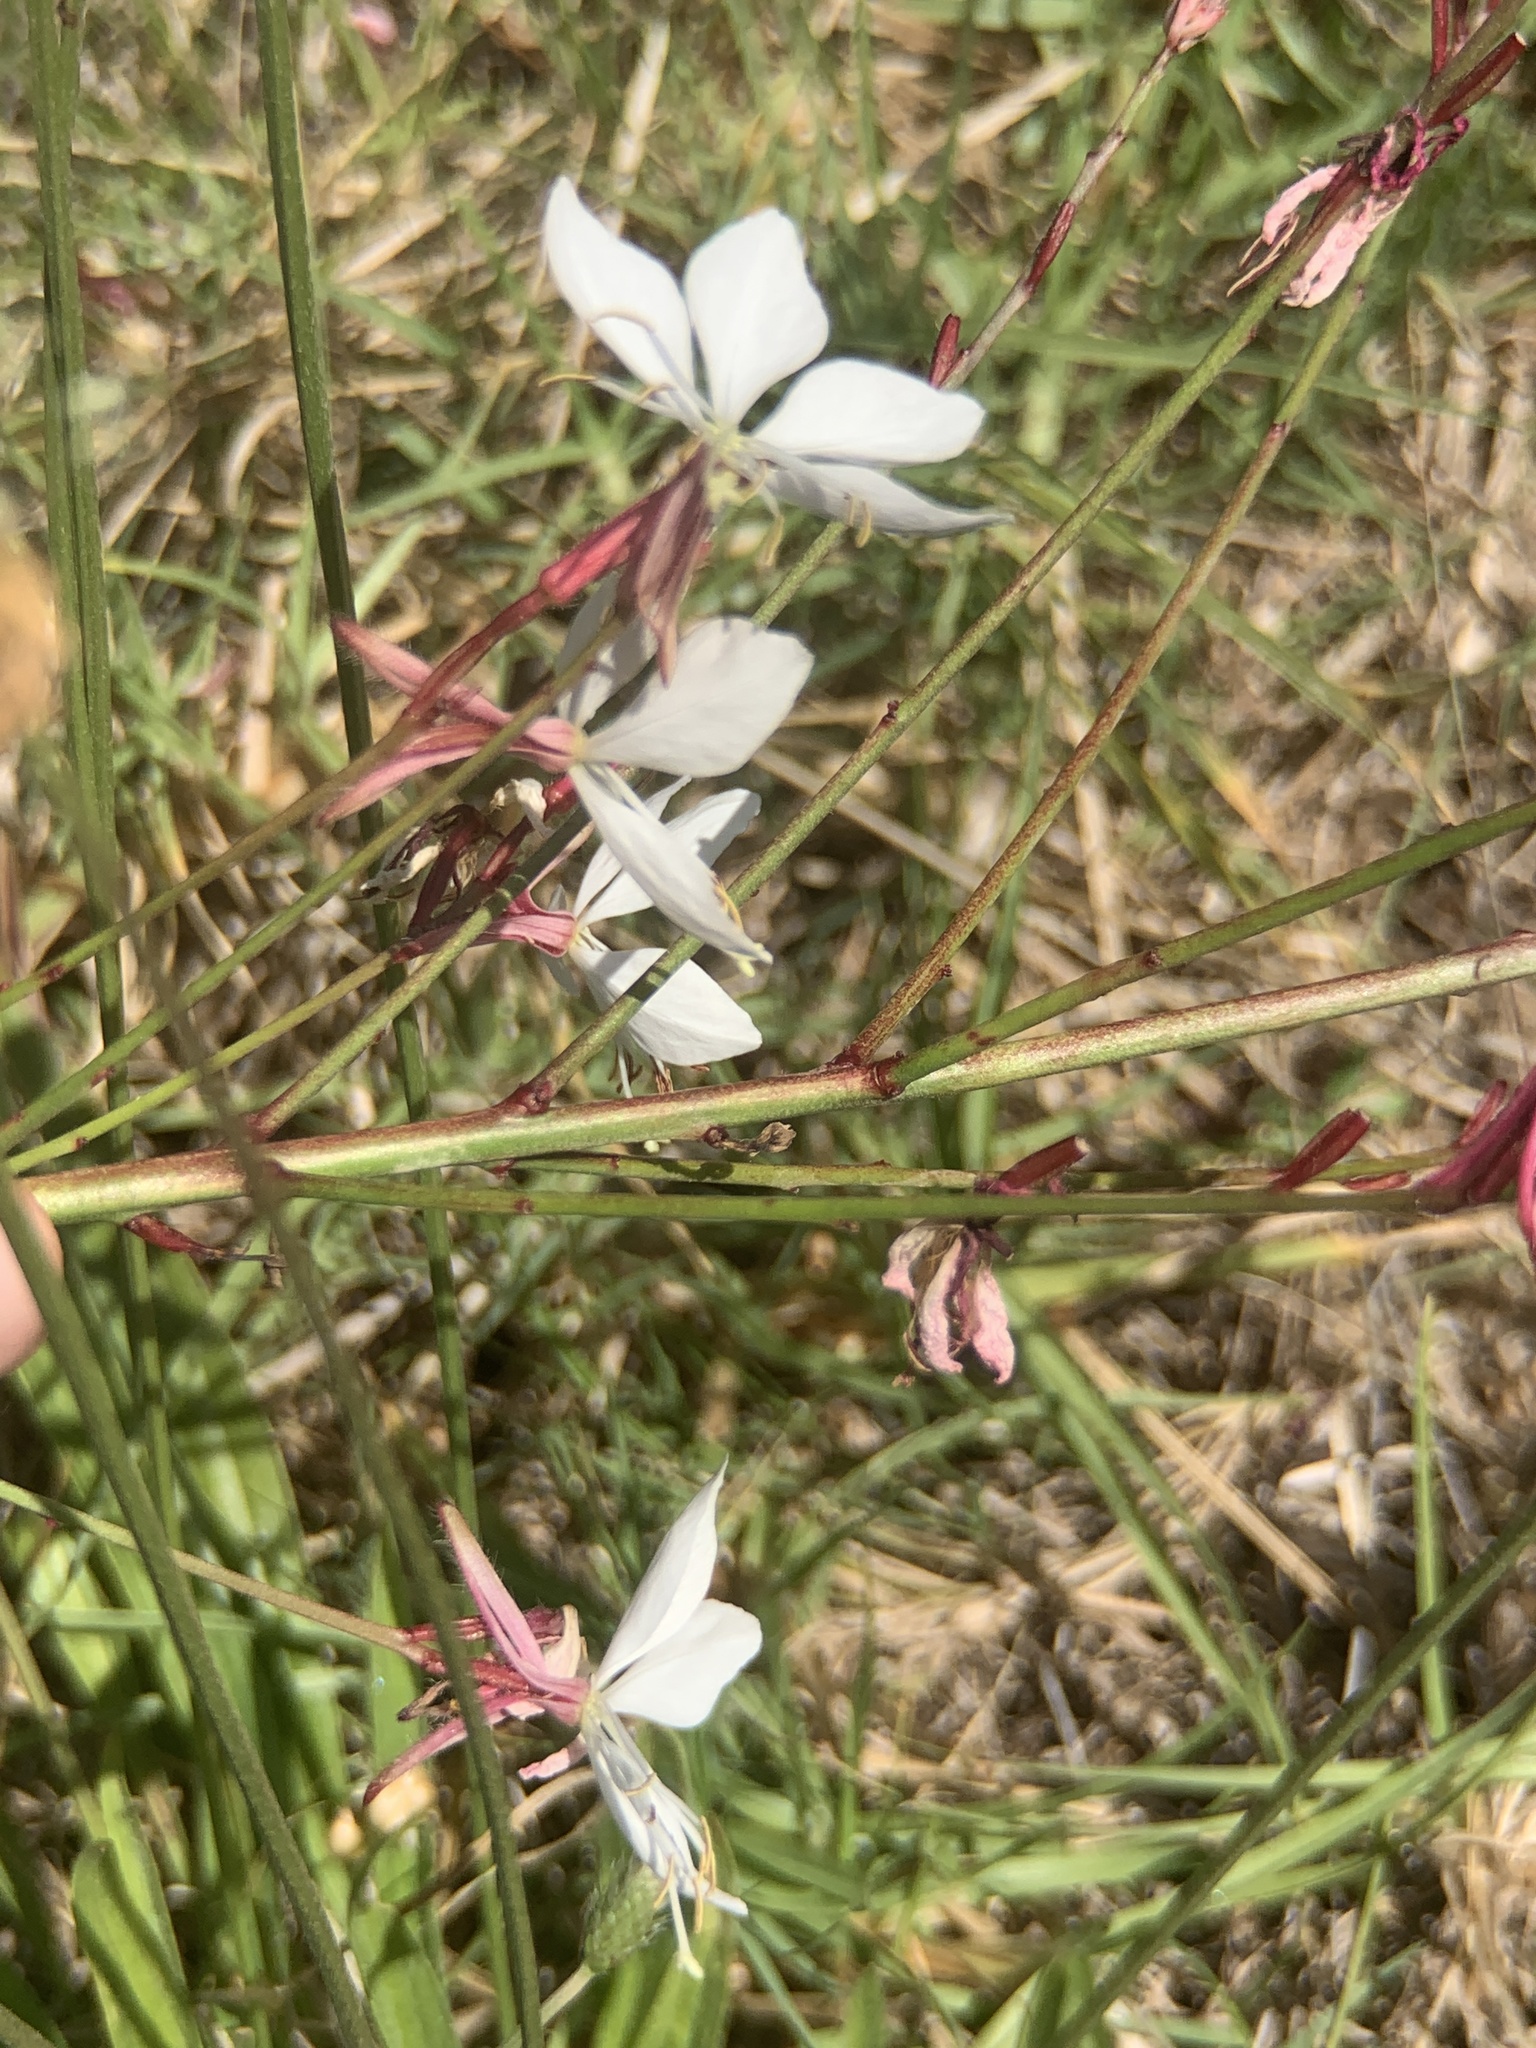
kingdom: Plantae
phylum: Tracheophyta
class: Magnoliopsida
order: Myrtales
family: Onagraceae
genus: Oenothera
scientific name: Oenothera lindheimeri
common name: Lindheimer's beeblossom
